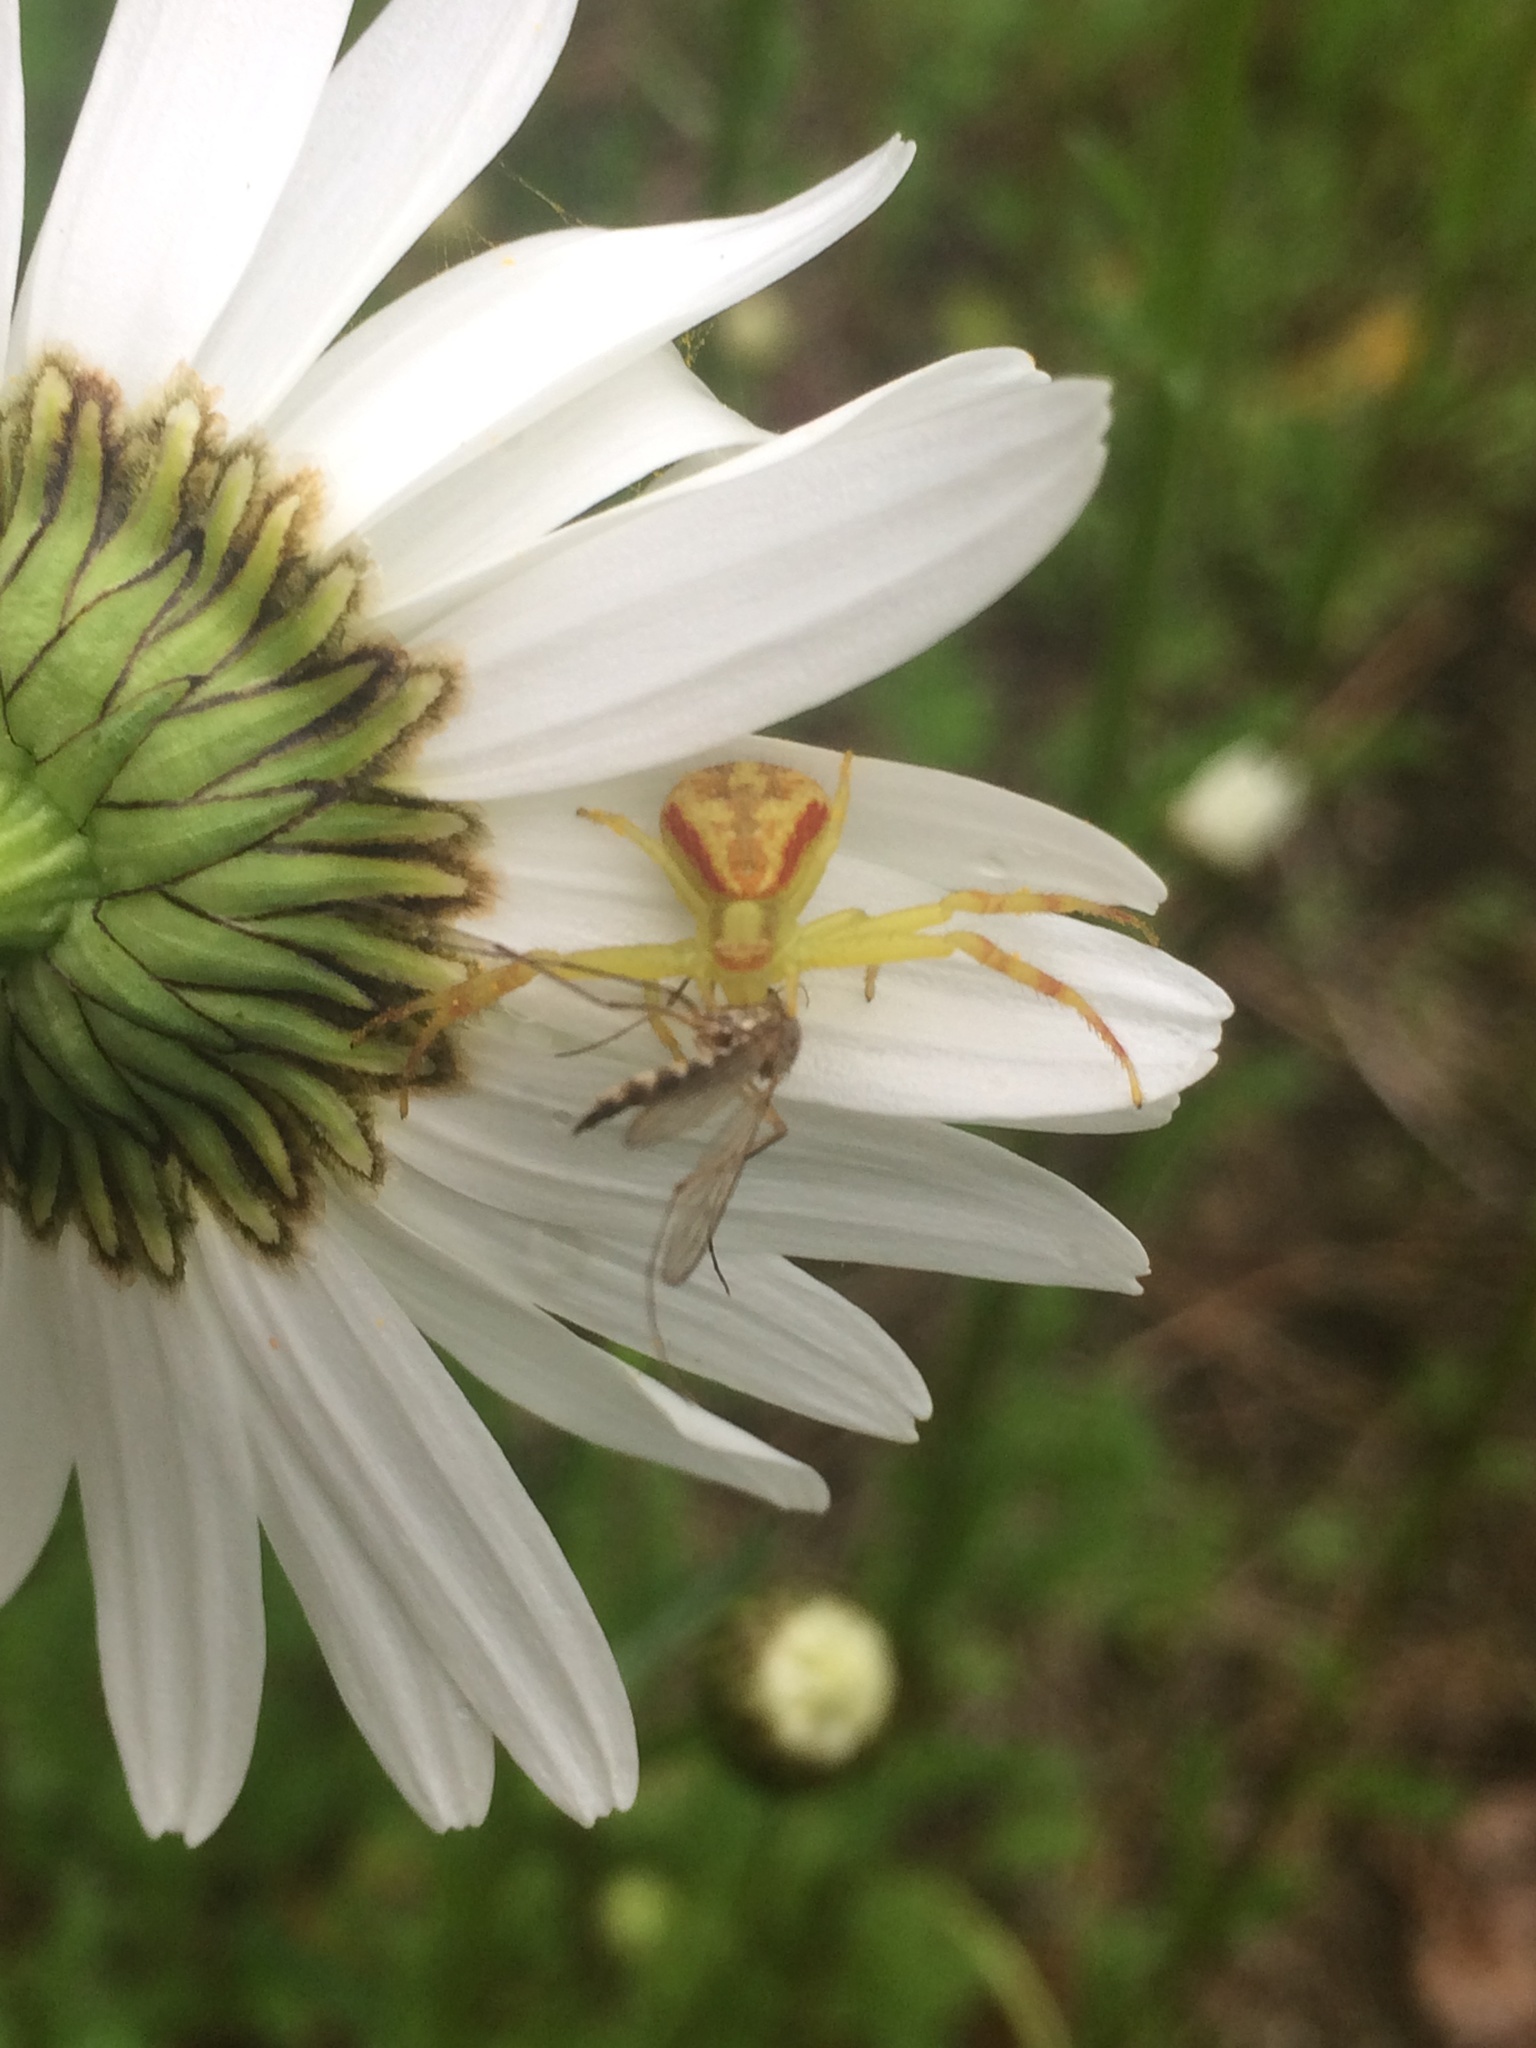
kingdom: Animalia
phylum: Arthropoda
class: Arachnida
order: Araneae
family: Thomisidae
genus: Mecaphesa
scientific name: Mecaphesa asperata
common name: Crab spiders
